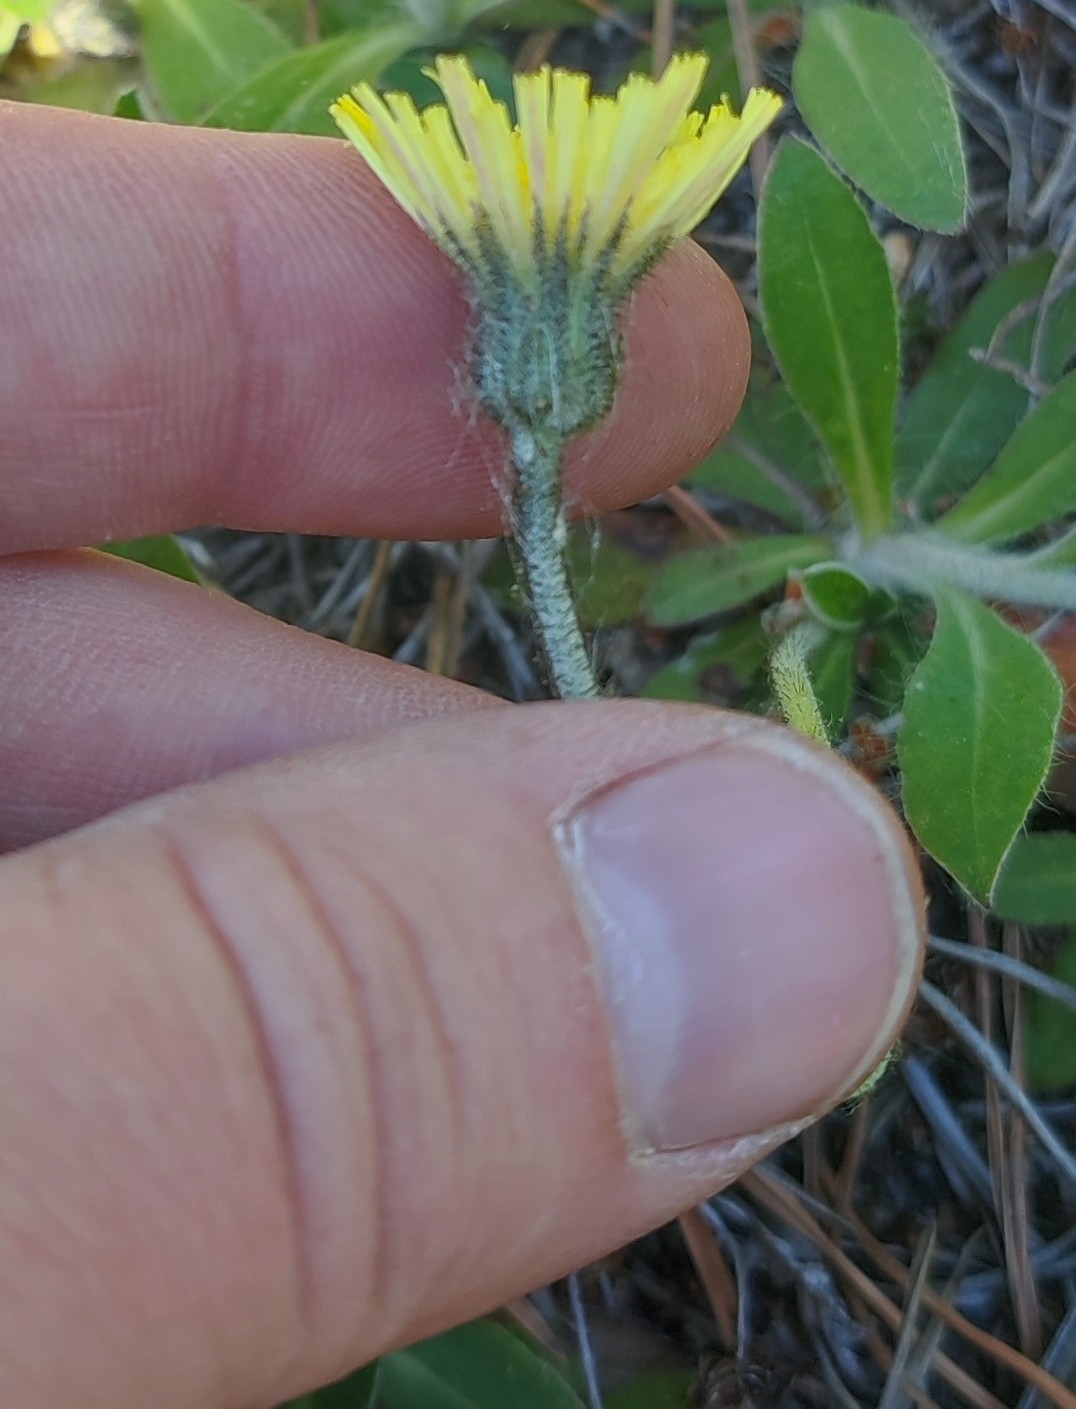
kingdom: Plantae
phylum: Tracheophyta
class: Magnoliopsida
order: Asterales
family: Asteraceae
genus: Pilosella
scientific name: Pilosella officinarum
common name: Mouse-ear hawkweed
